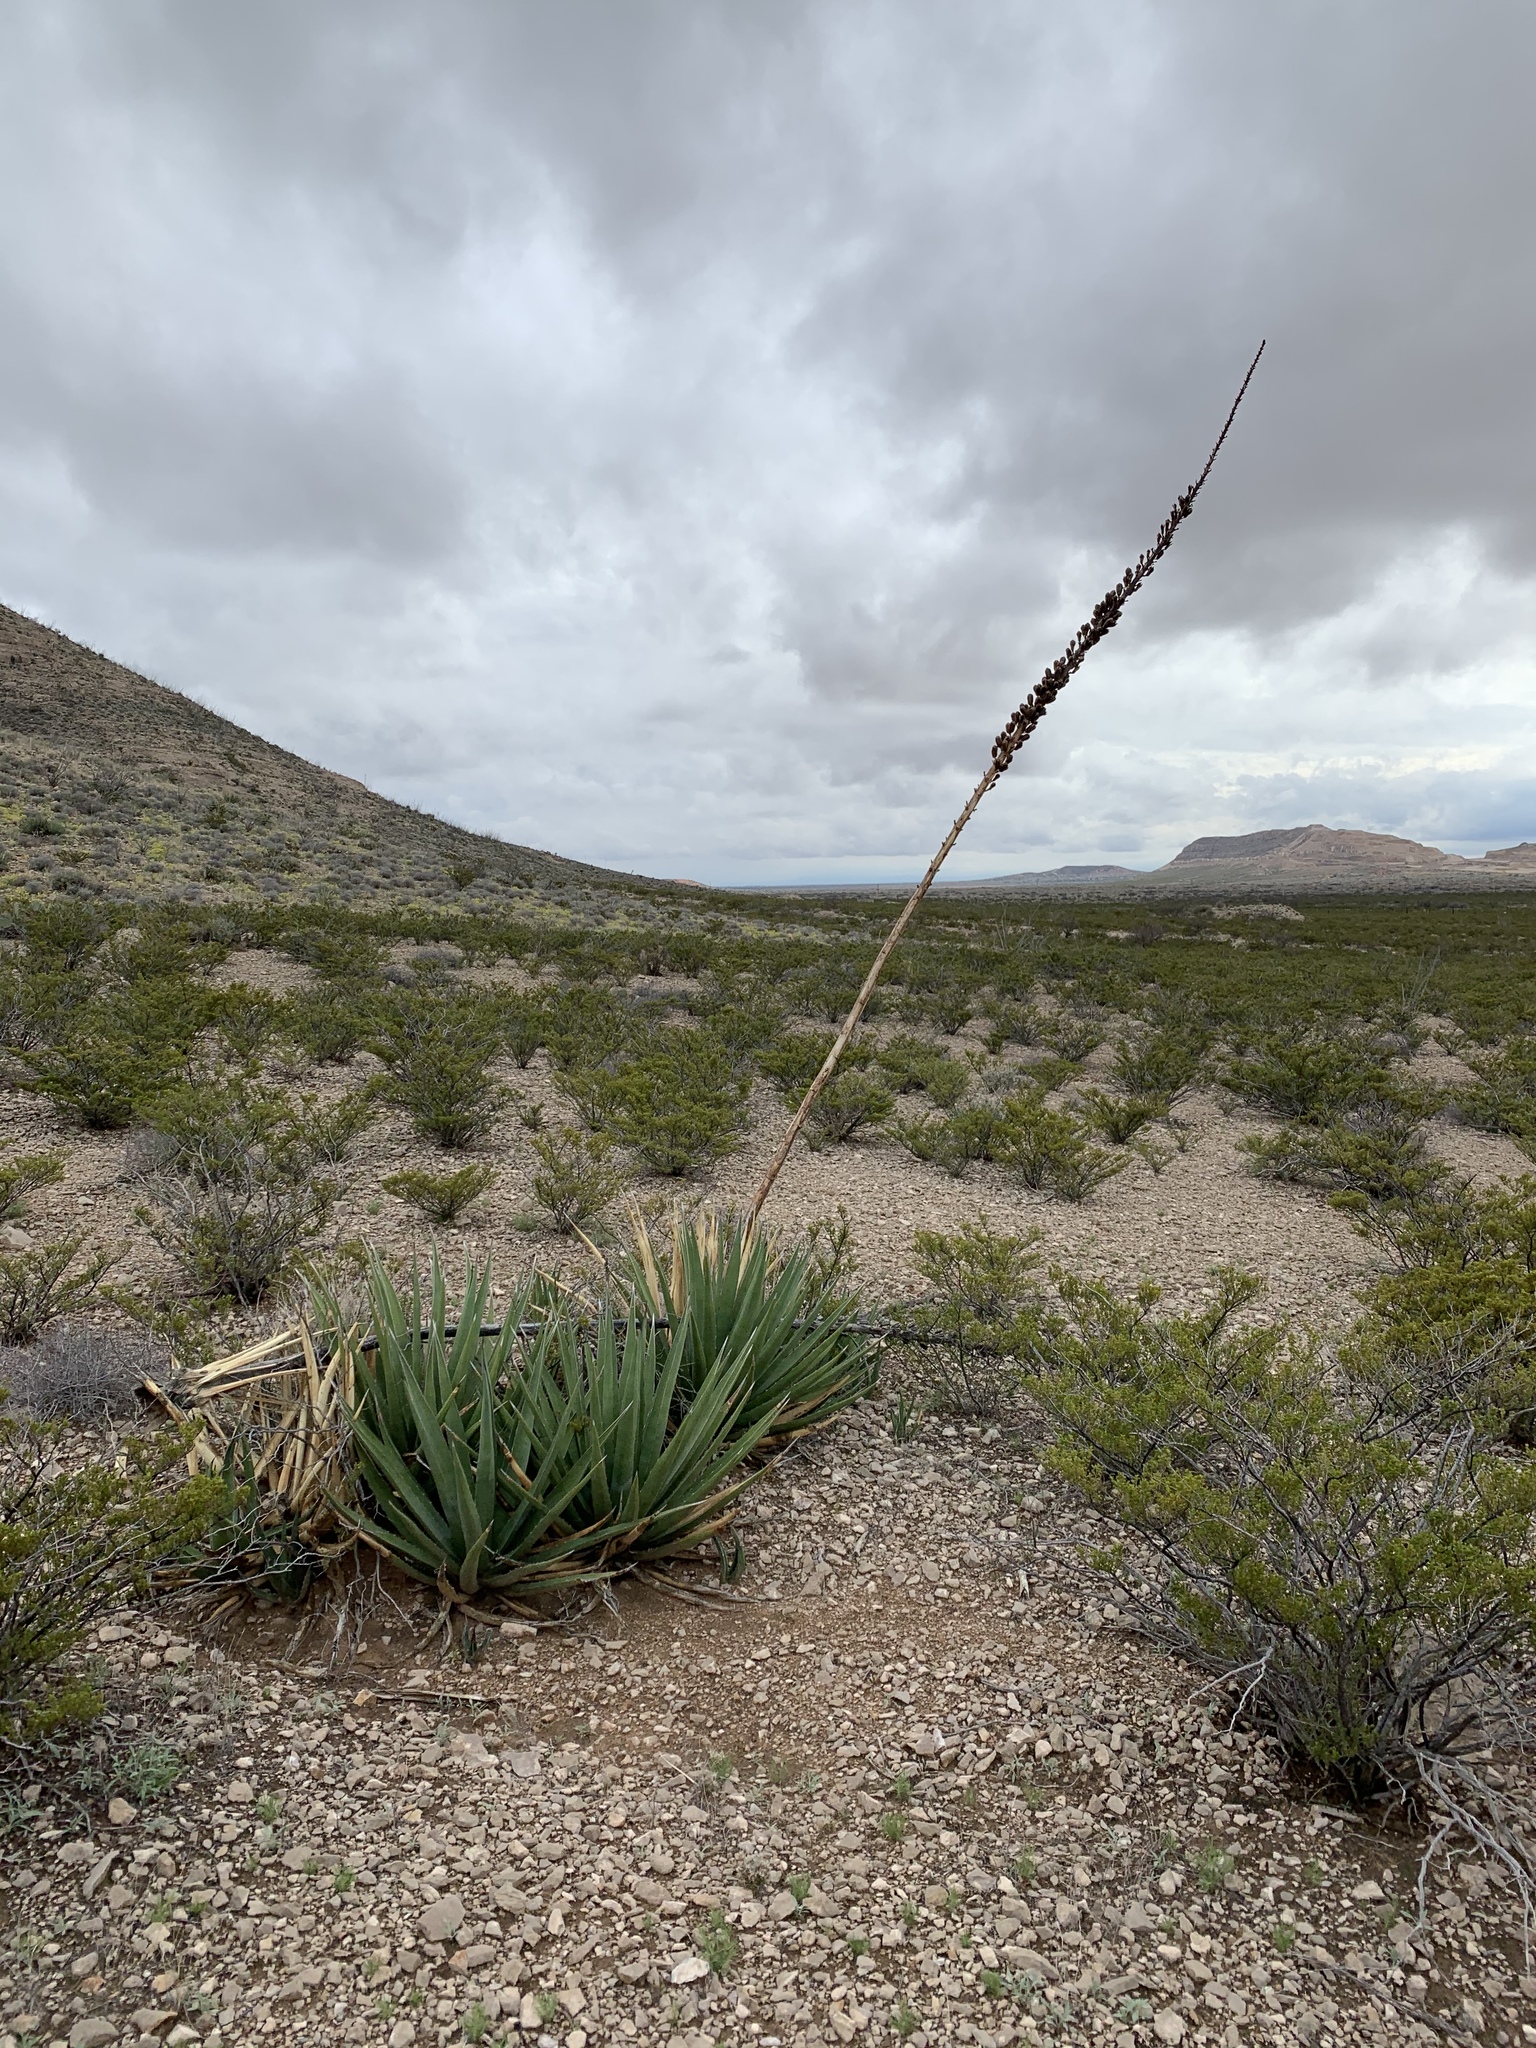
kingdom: Plantae
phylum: Tracheophyta
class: Liliopsida
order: Asparagales
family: Asparagaceae
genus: Agave
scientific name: Agave lechuguilla
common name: Lecheguilla agave
